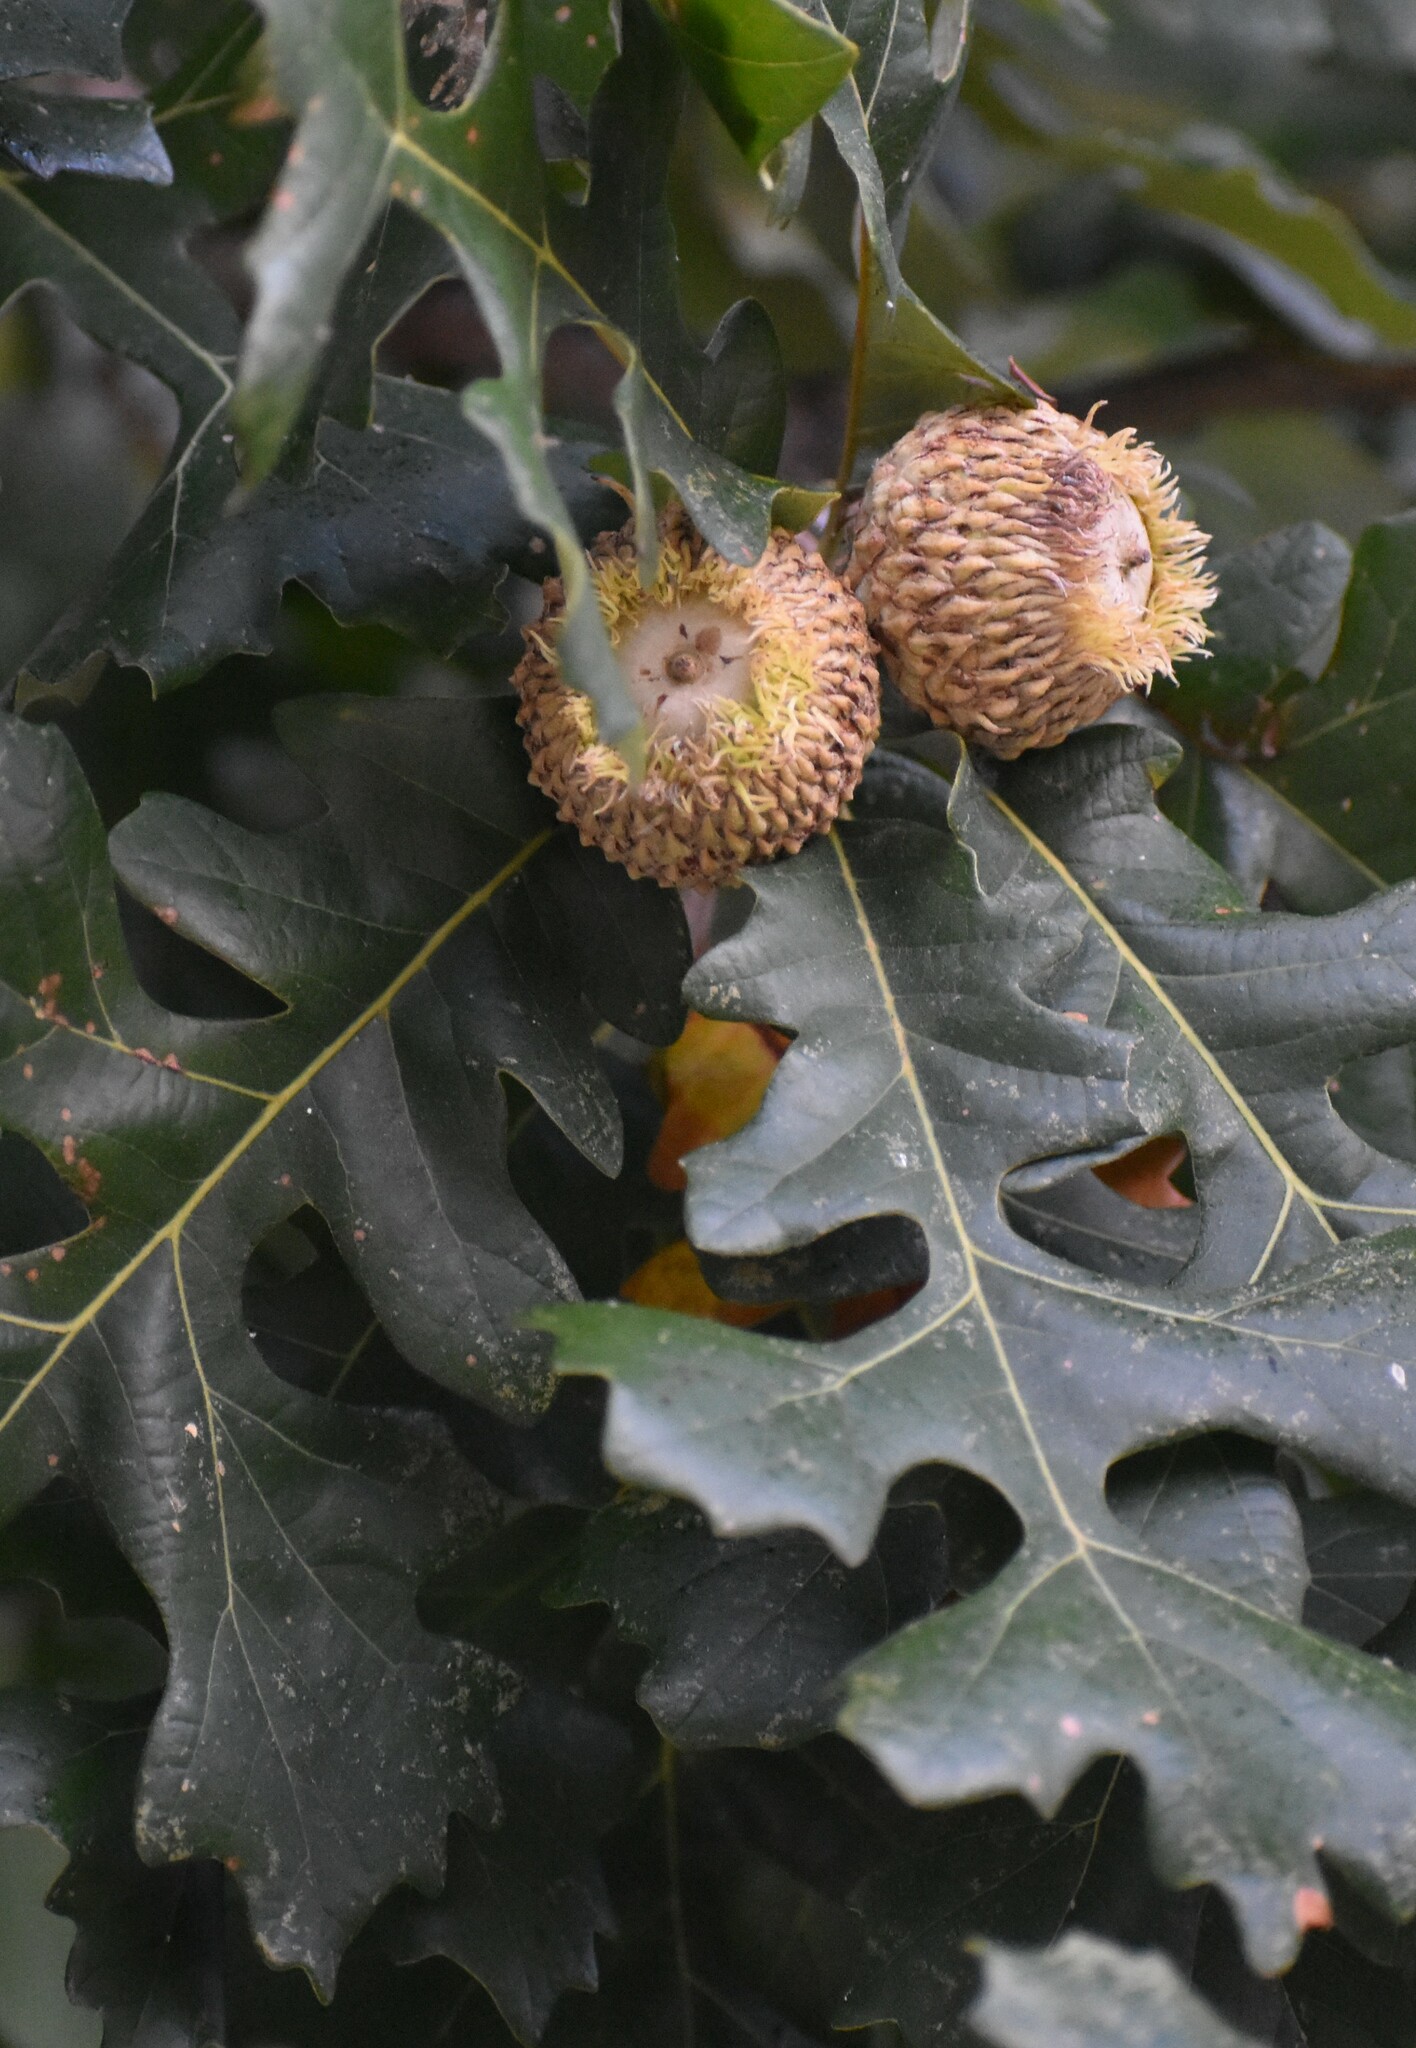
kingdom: Plantae
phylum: Tracheophyta
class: Magnoliopsida
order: Fagales
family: Fagaceae
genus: Quercus
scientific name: Quercus macrocarpa
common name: Bur oak
